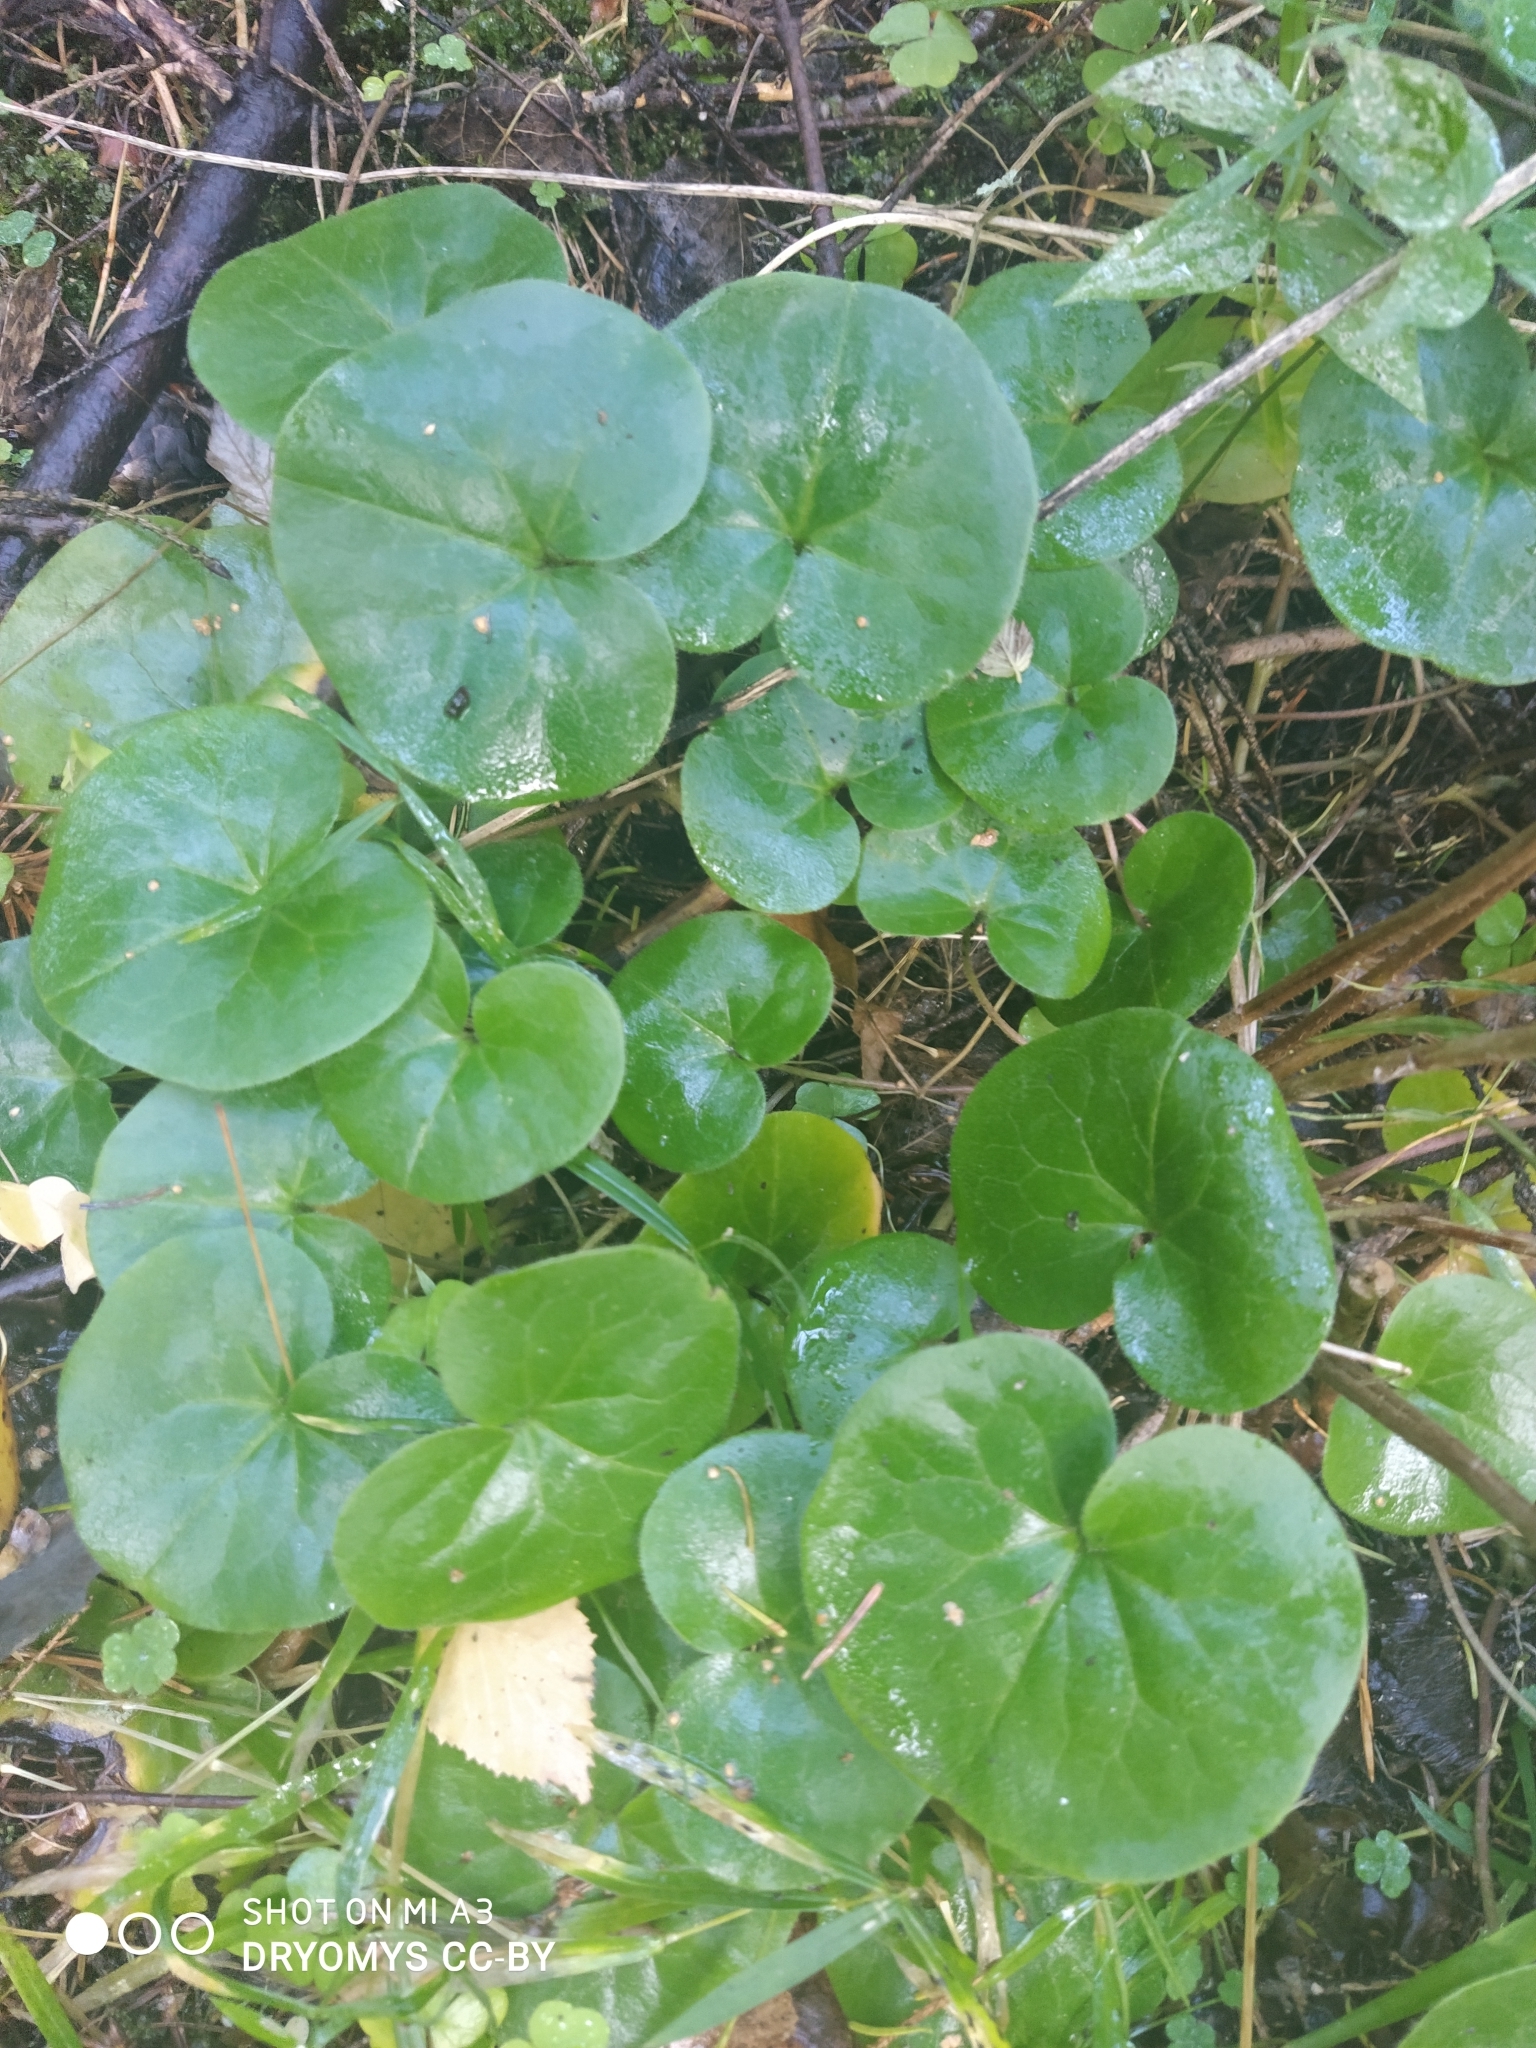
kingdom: Plantae
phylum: Tracheophyta
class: Magnoliopsida
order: Piperales
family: Aristolochiaceae
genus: Asarum
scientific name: Asarum europaeum
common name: Asarabacca
